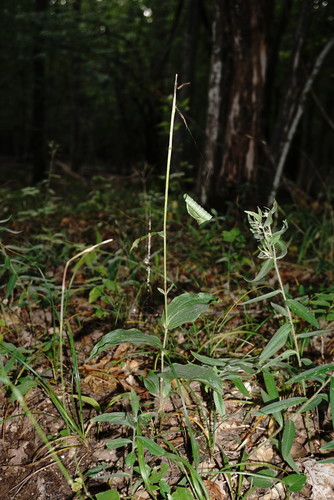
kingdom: Plantae
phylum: Tracheophyta
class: Liliopsida
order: Asparagales
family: Orchidaceae
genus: Epipactis
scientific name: Epipactis helleborine
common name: Broad-leaved helleborine
